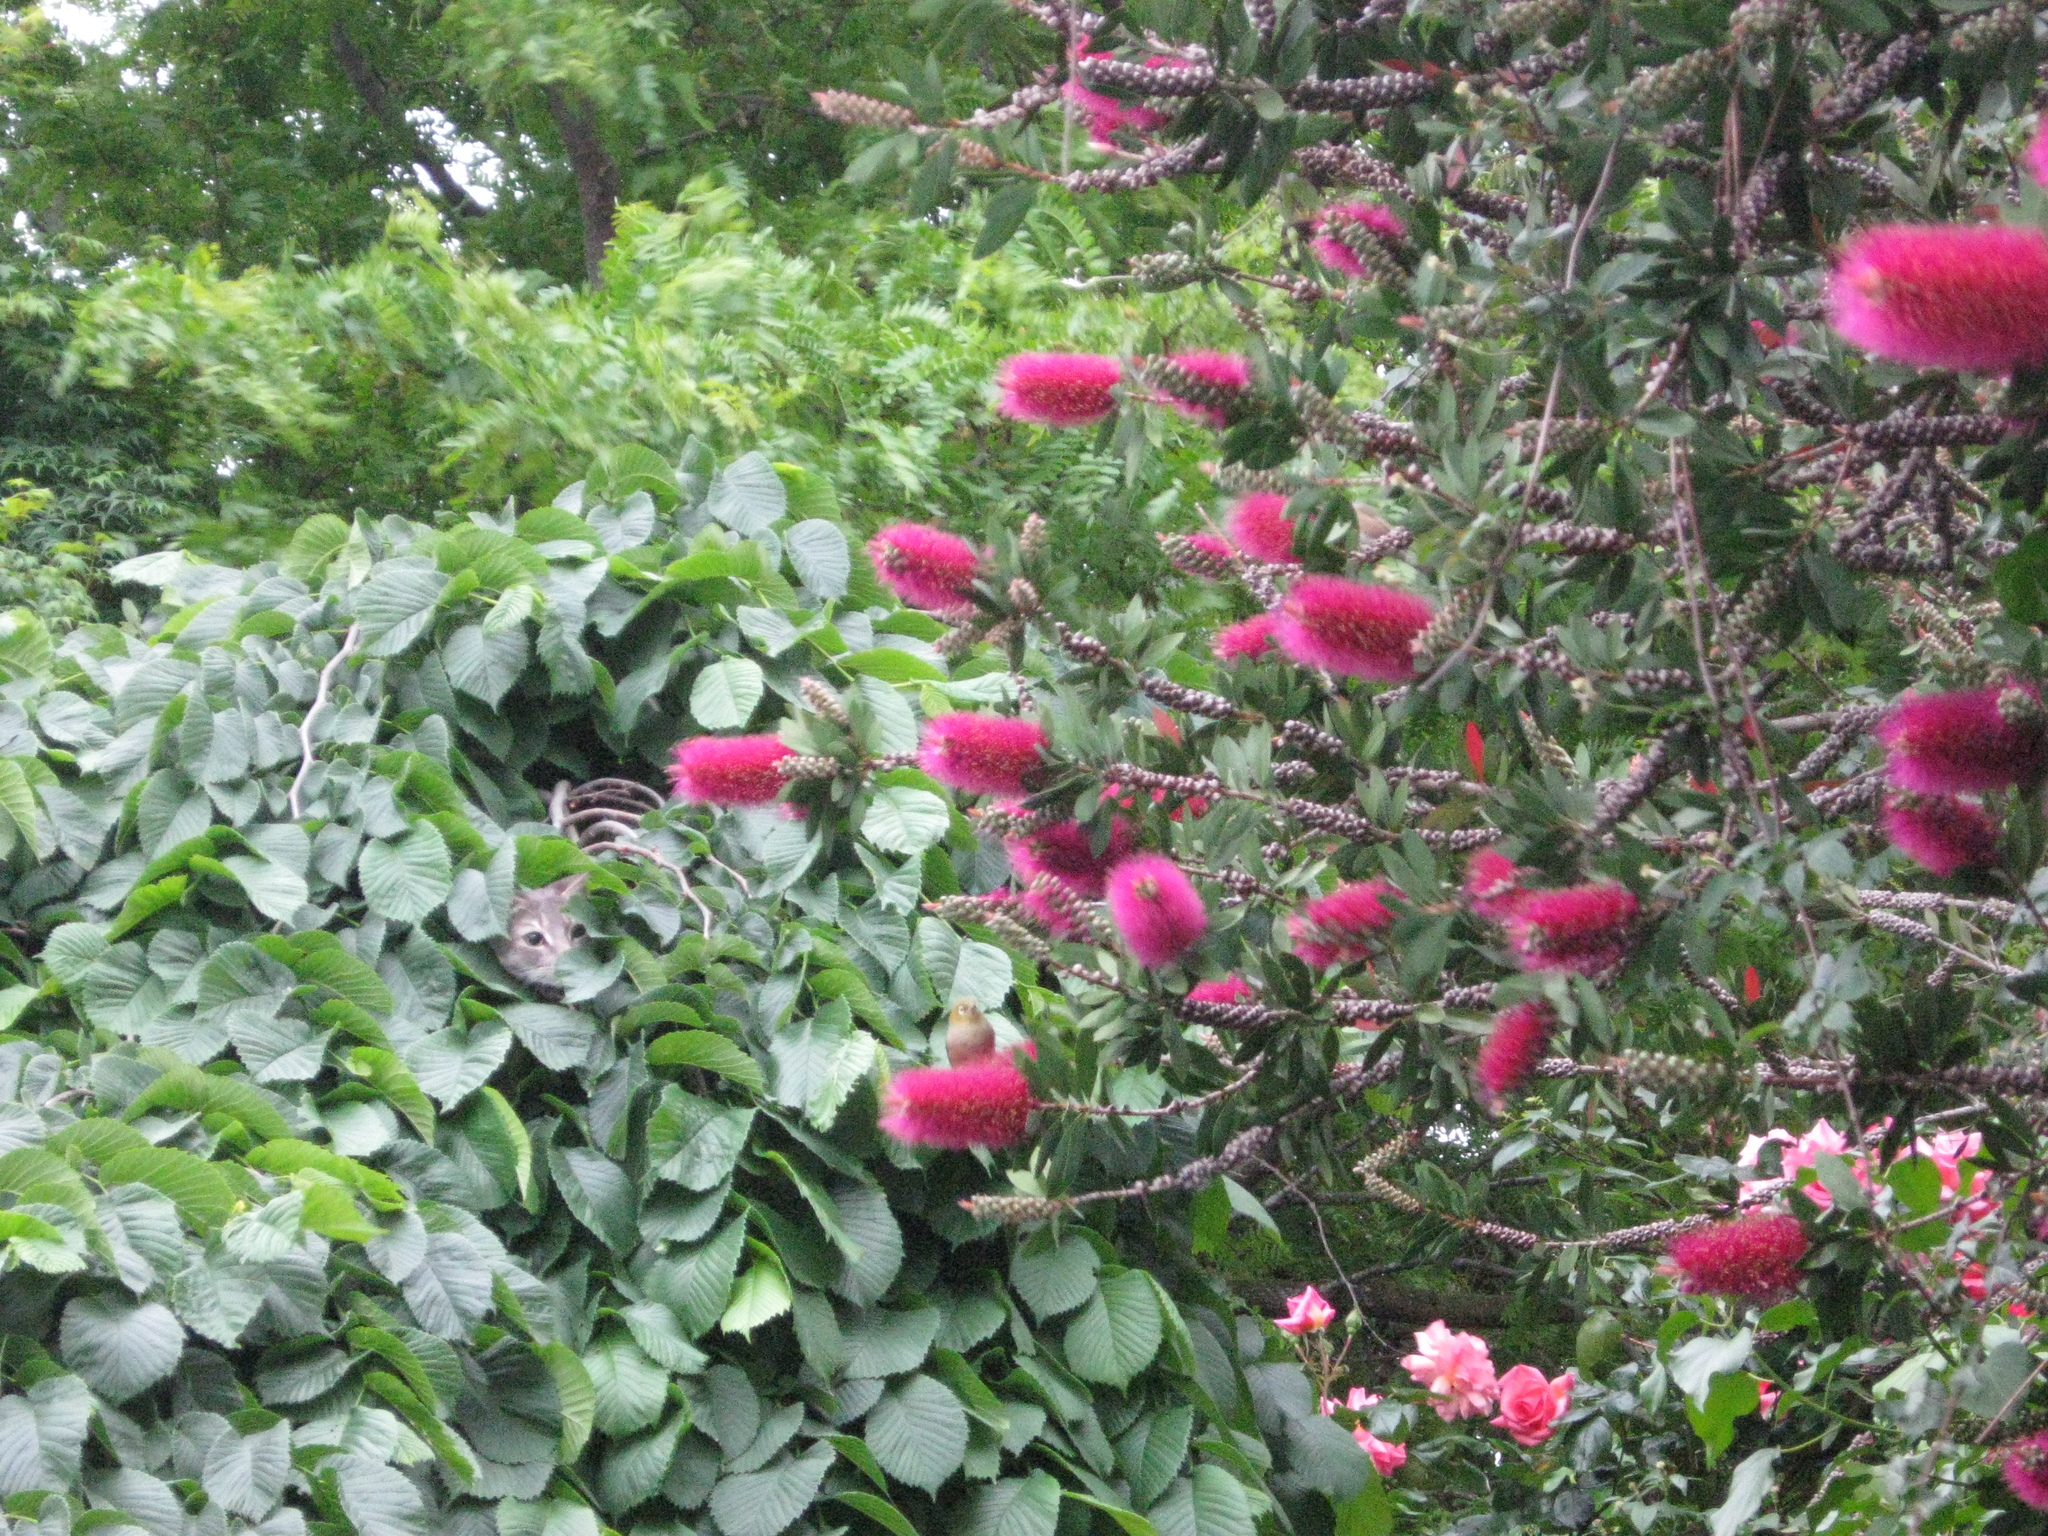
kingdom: Animalia
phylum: Chordata
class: Mammalia
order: Carnivora
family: Felidae
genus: Felis
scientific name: Felis catus
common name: Domestic cat
